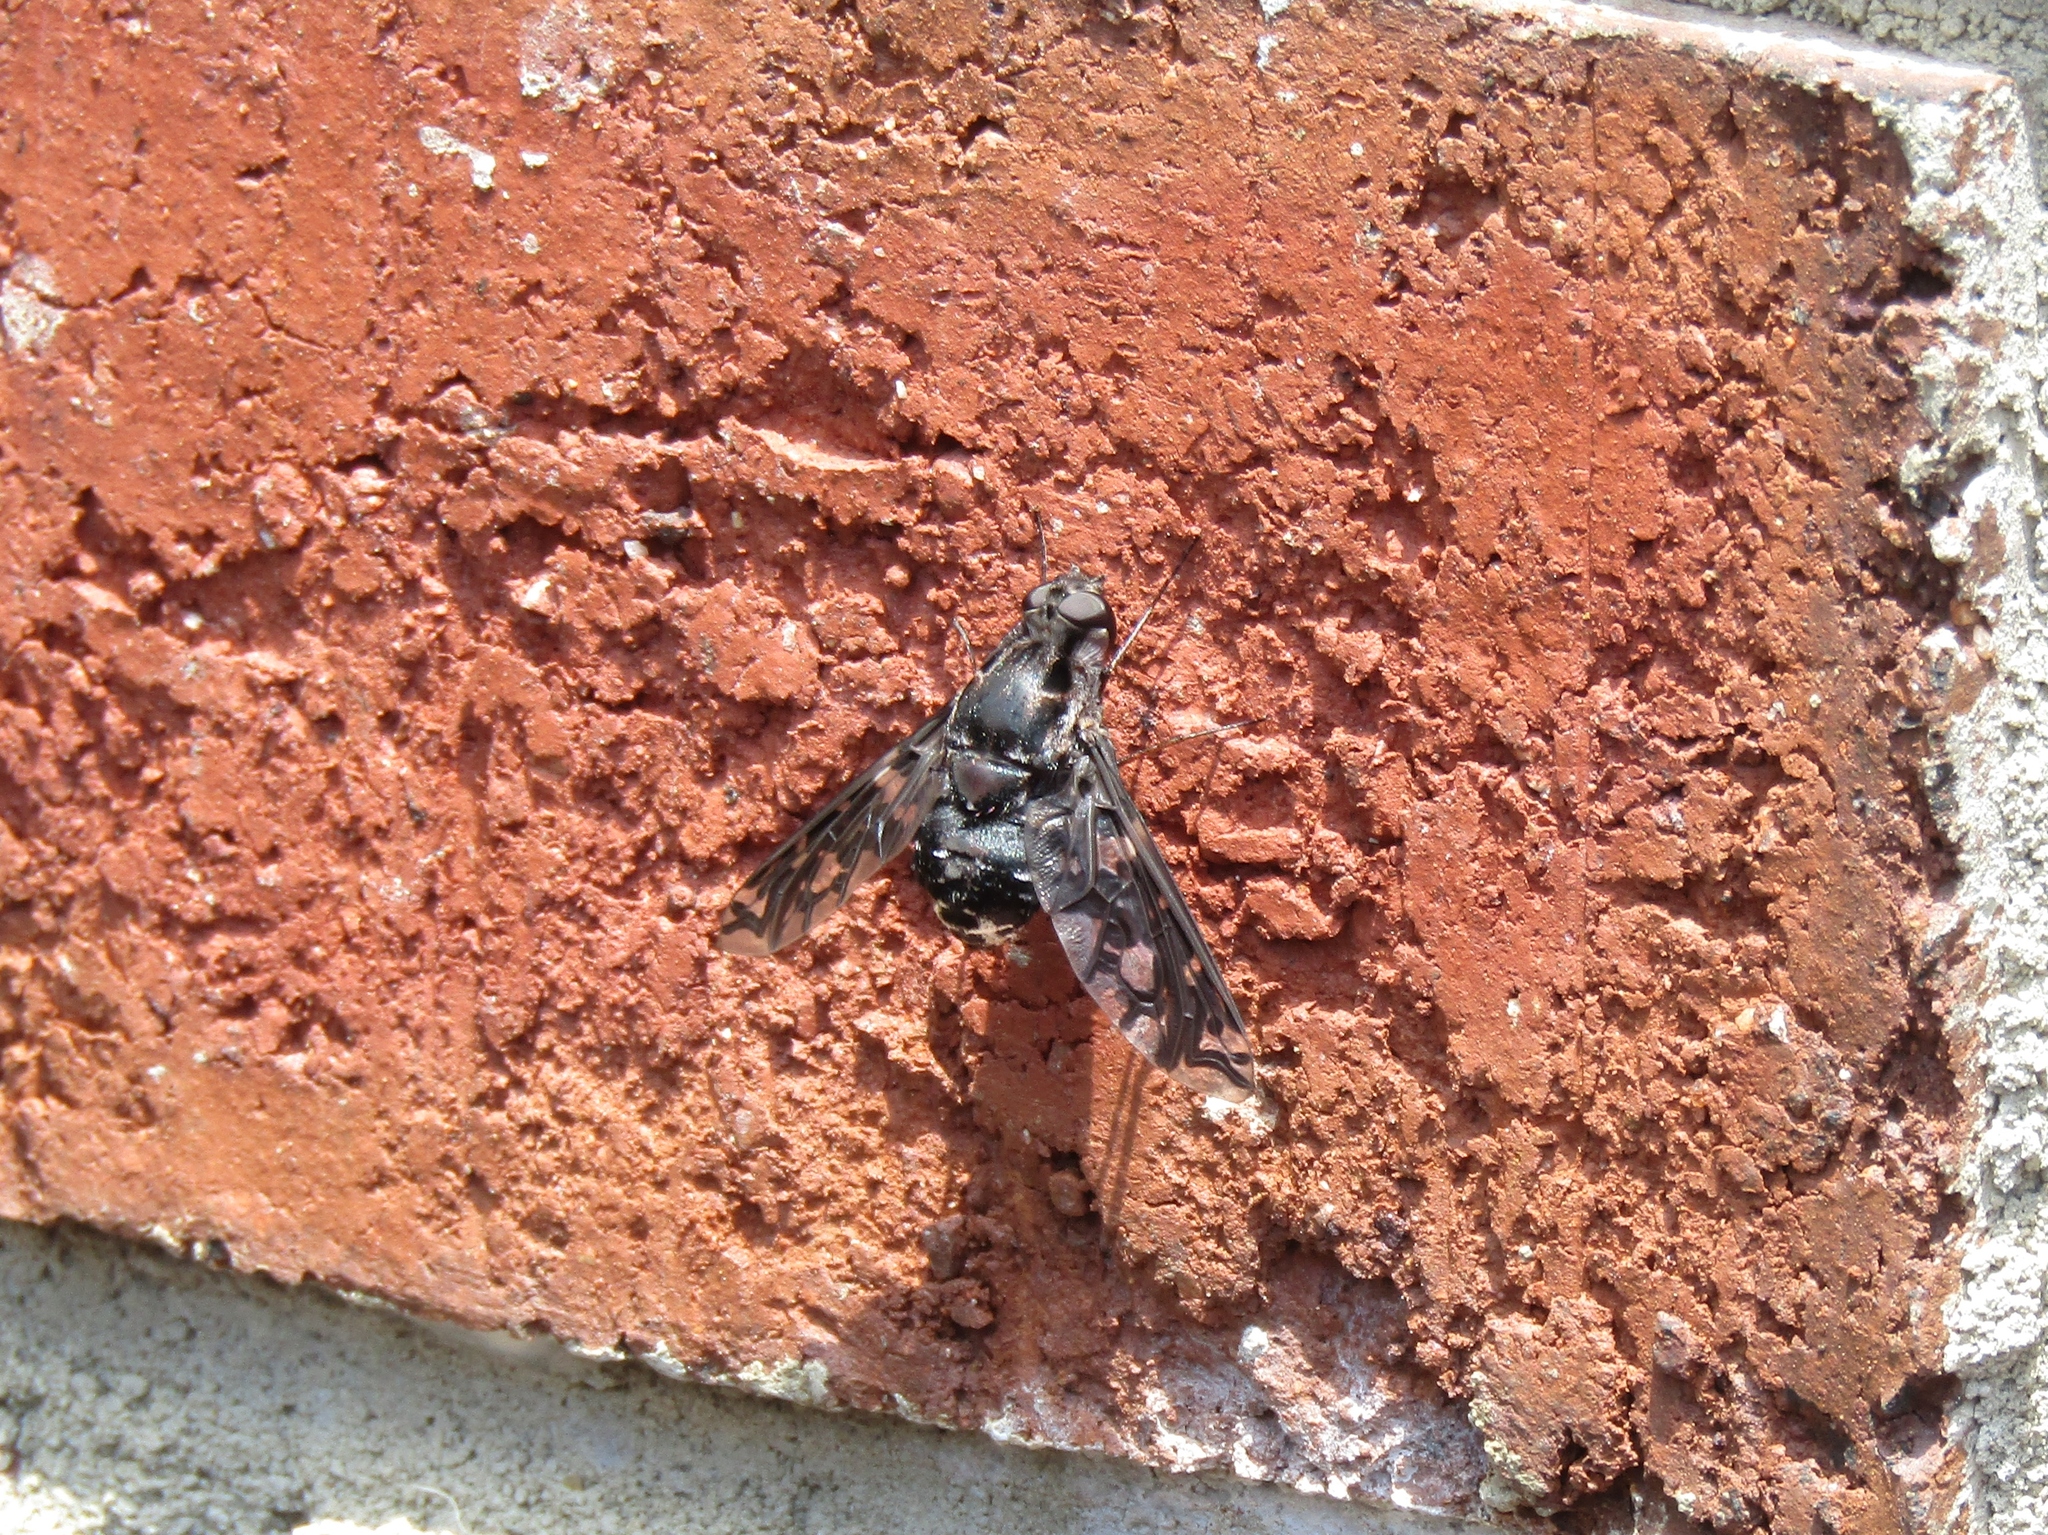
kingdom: Animalia
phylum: Arthropoda
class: Insecta
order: Diptera
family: Bombyliidae
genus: Xenox
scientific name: Xenox tigrinus
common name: Tiger bee fly
